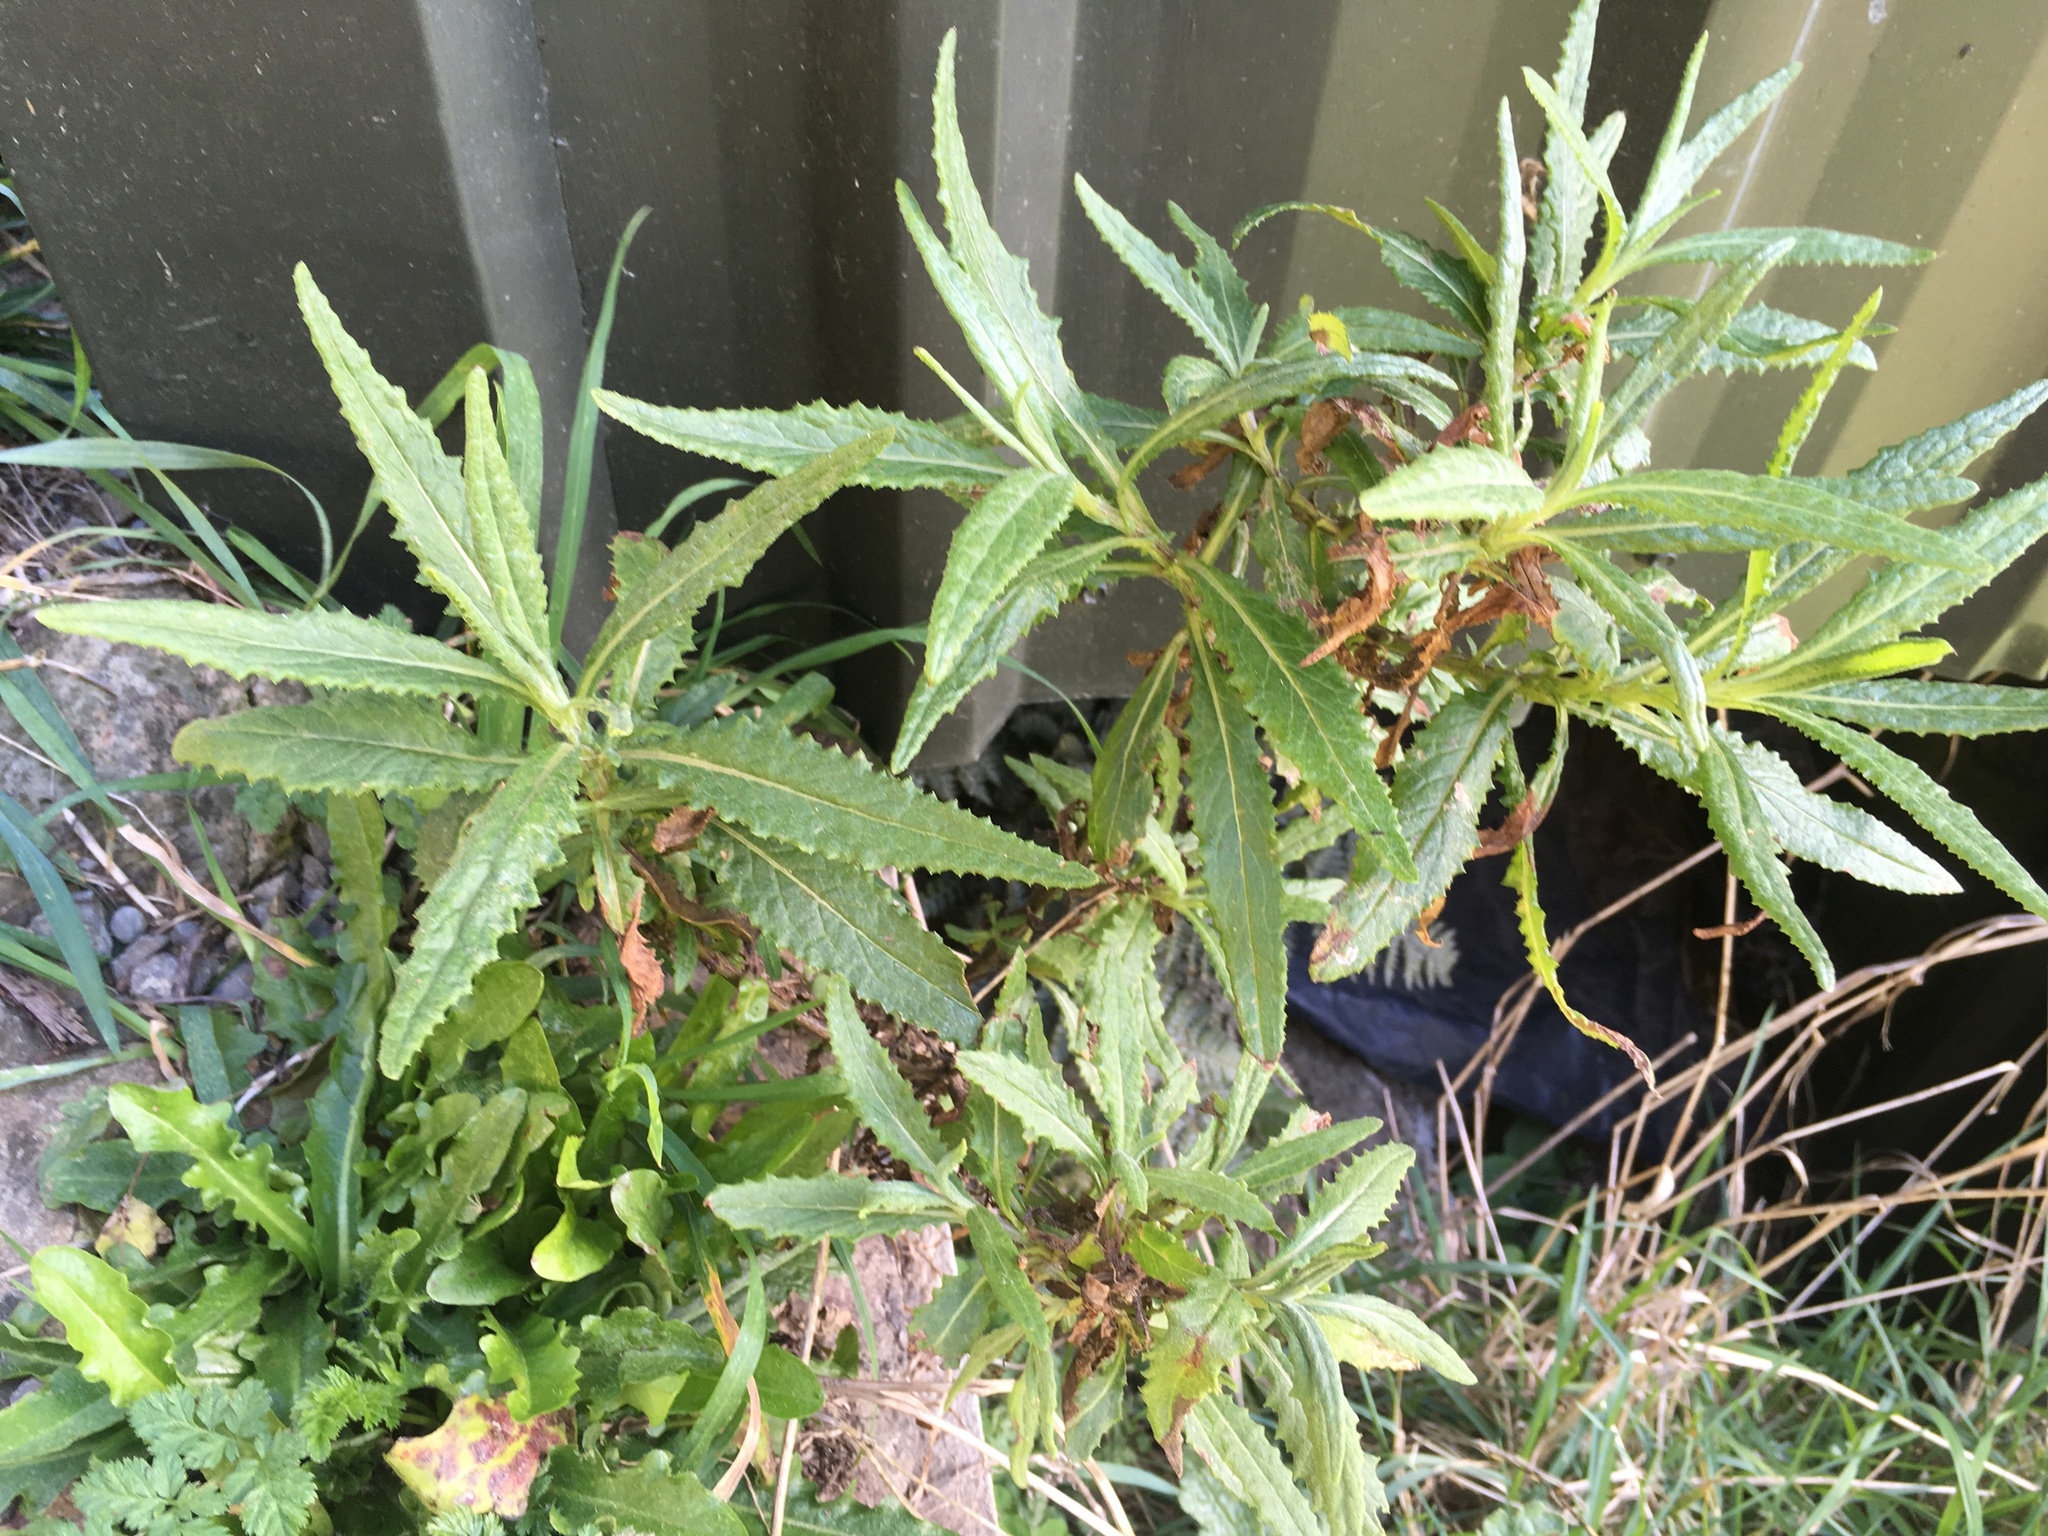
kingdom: Plantae
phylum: Tracheophyta
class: Magnoliopsida
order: Asterales
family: Asteraceae
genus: Senecio
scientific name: Senecio minimus
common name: Toothed fireweed
